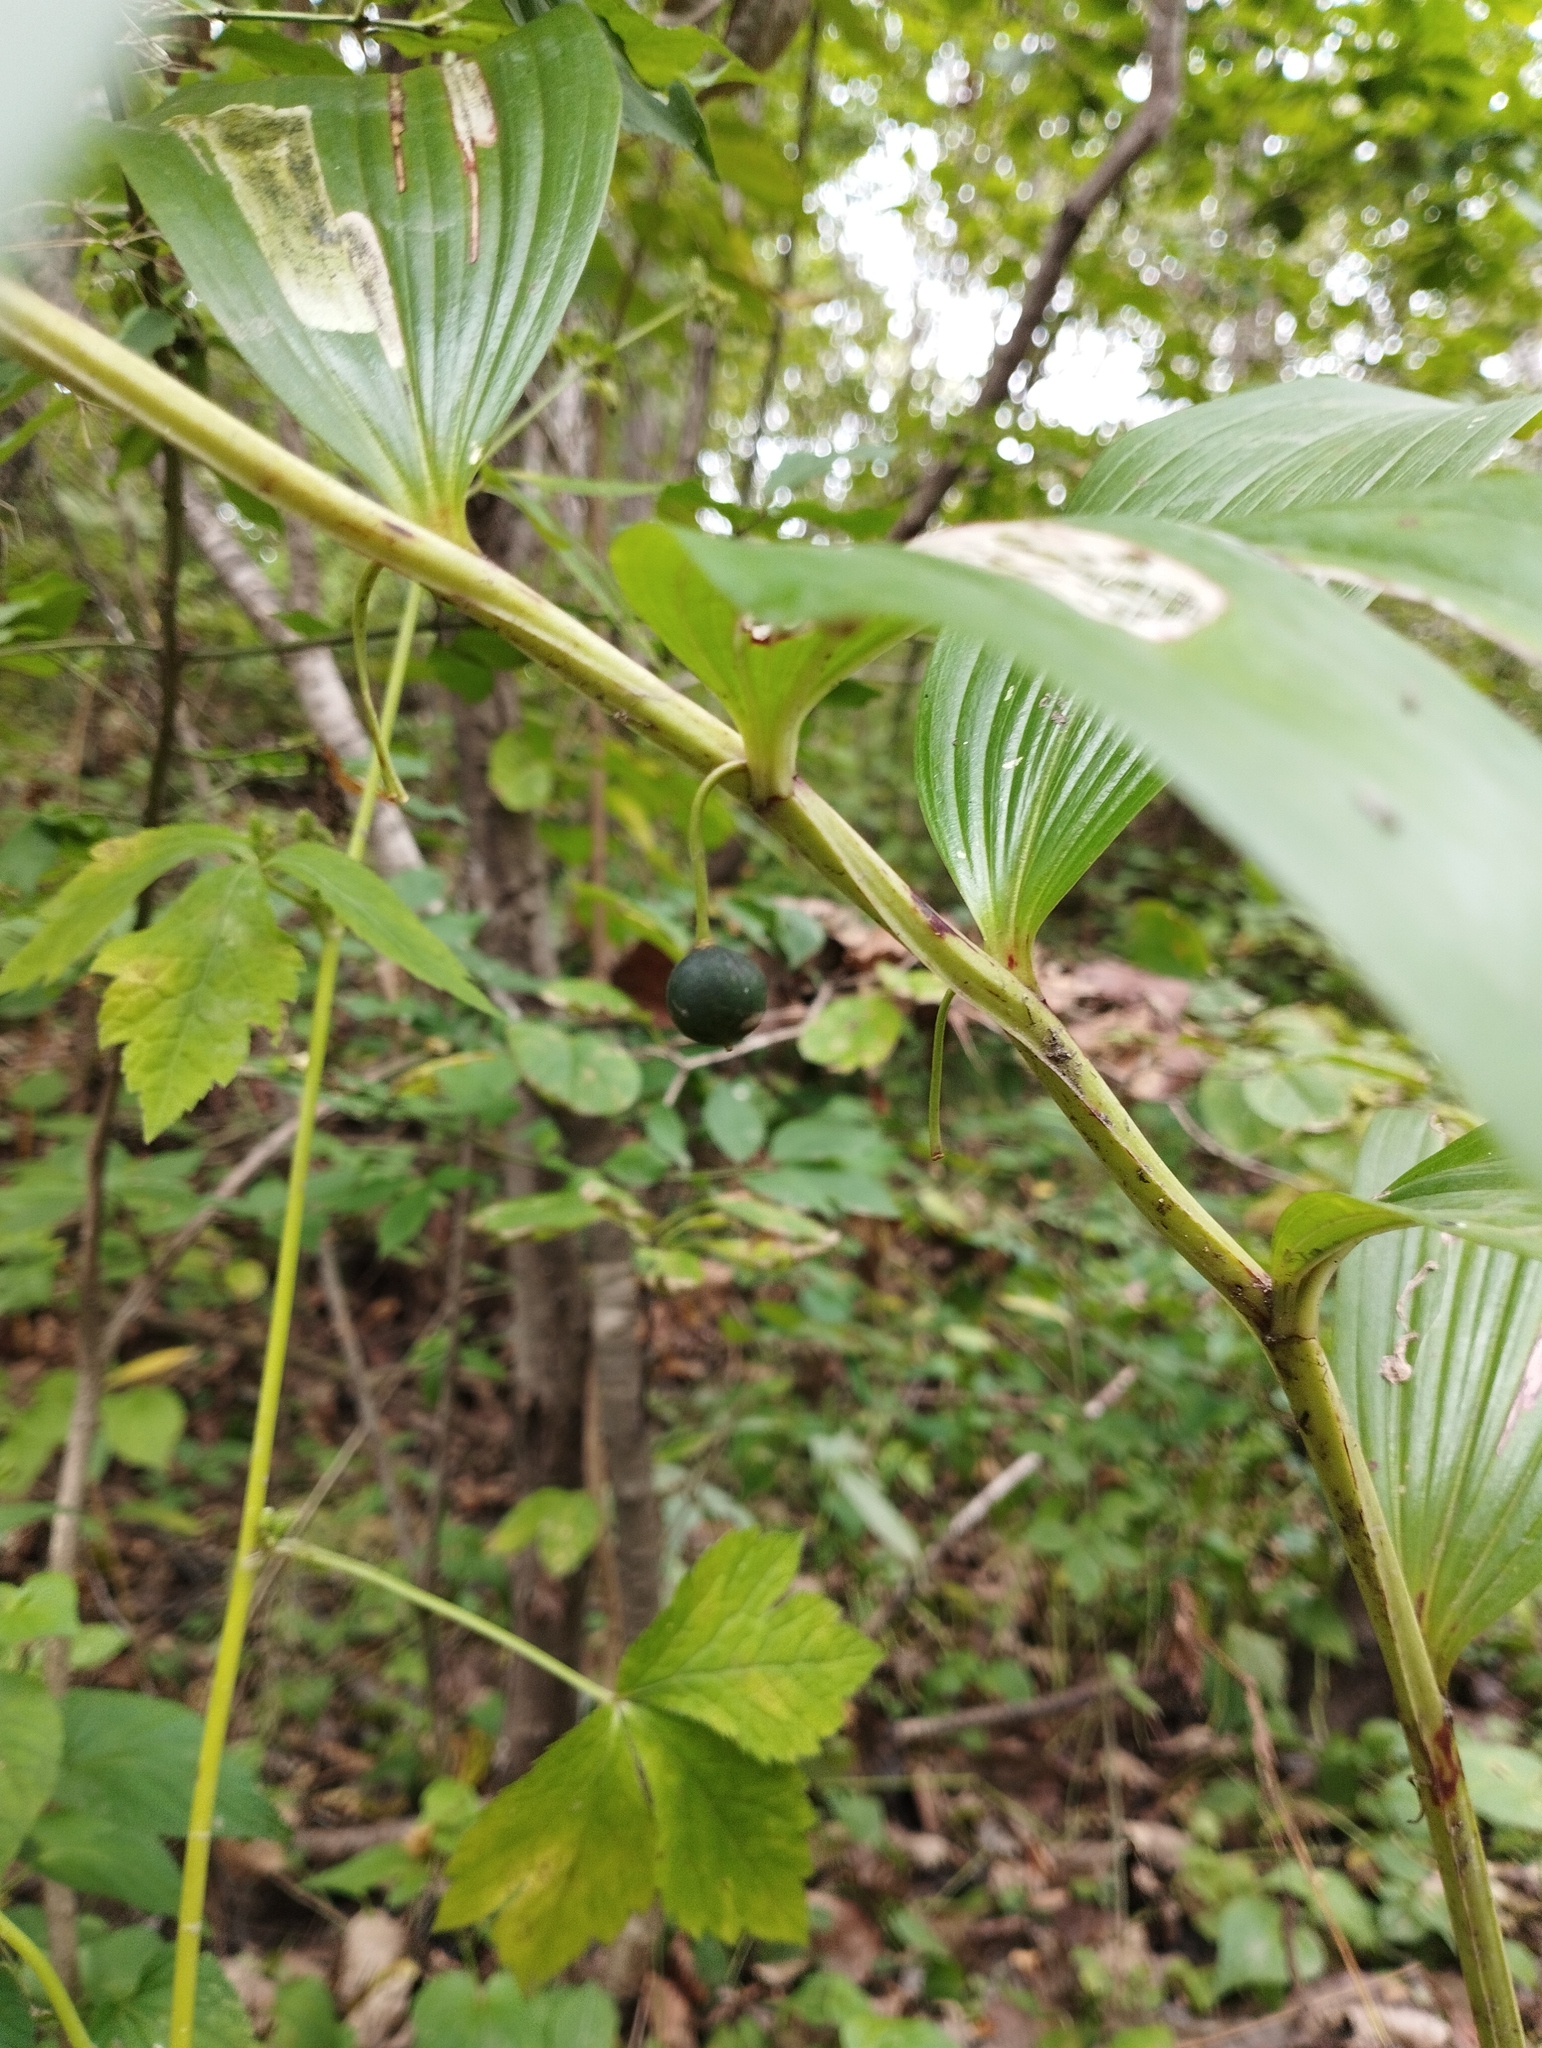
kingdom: Plantae
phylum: Tracheophyta
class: Liliopsida
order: Asparagales
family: Asparagaceae
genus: Polygonatum
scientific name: Polygonatum odoratum
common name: Angular solomon's-seal
